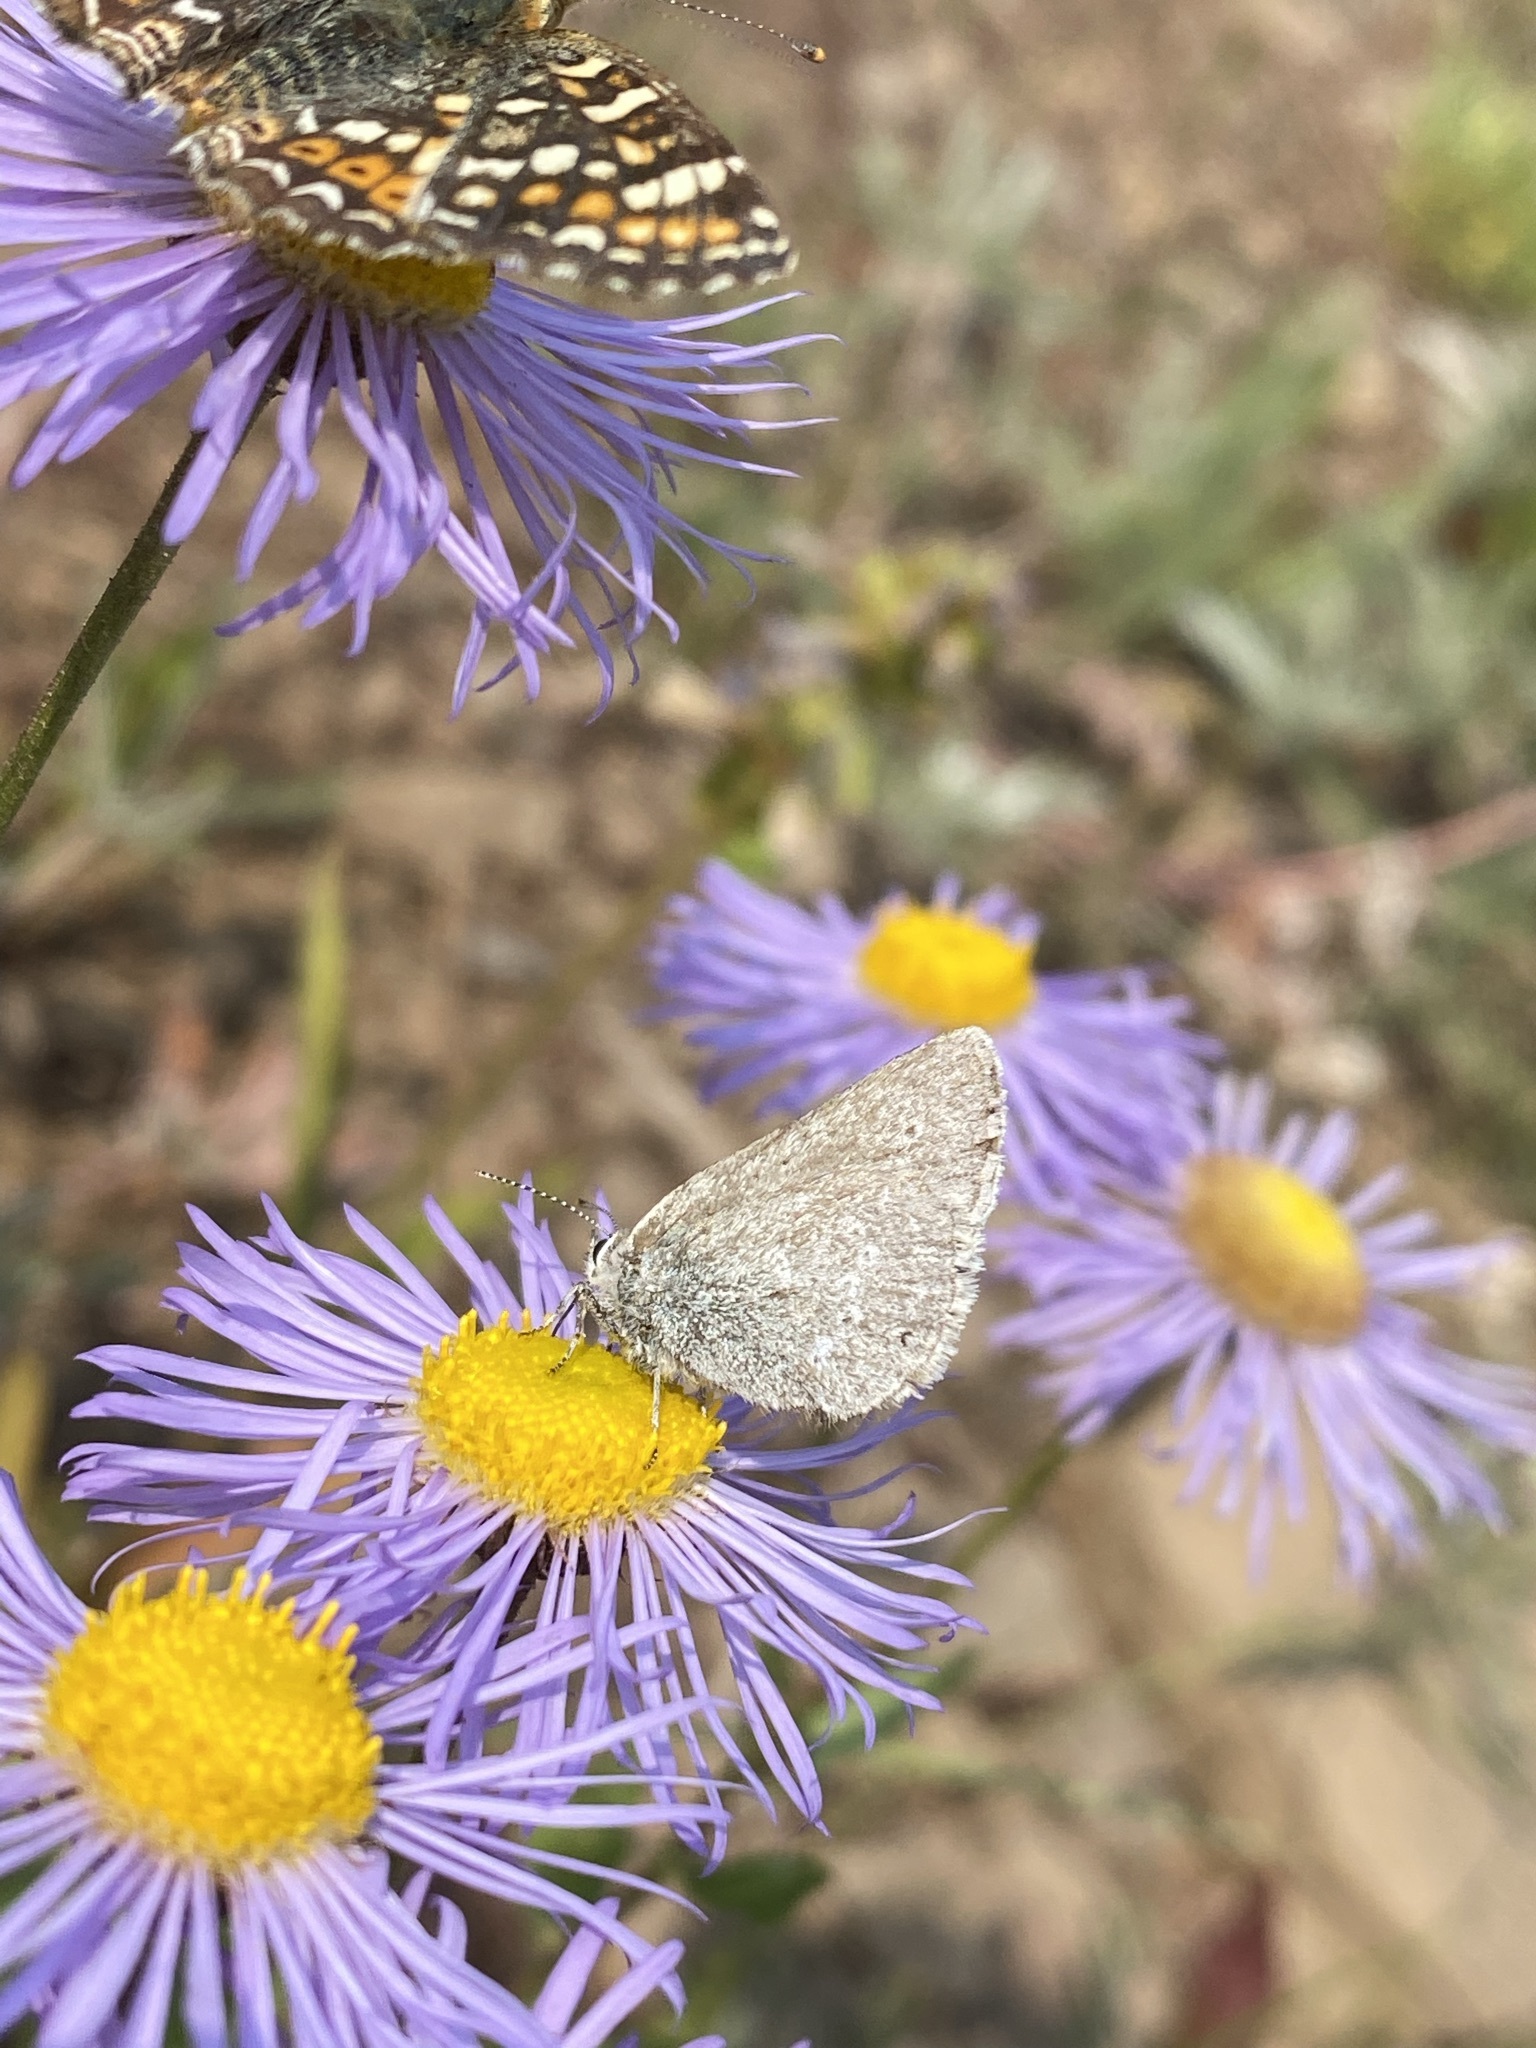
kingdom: Animalia
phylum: Arthropoda
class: Insecta
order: Lepidoptera
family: Lycaenidae
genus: Satyrium
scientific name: Satyrium fuliginosa
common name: Western sooty hairstreak
